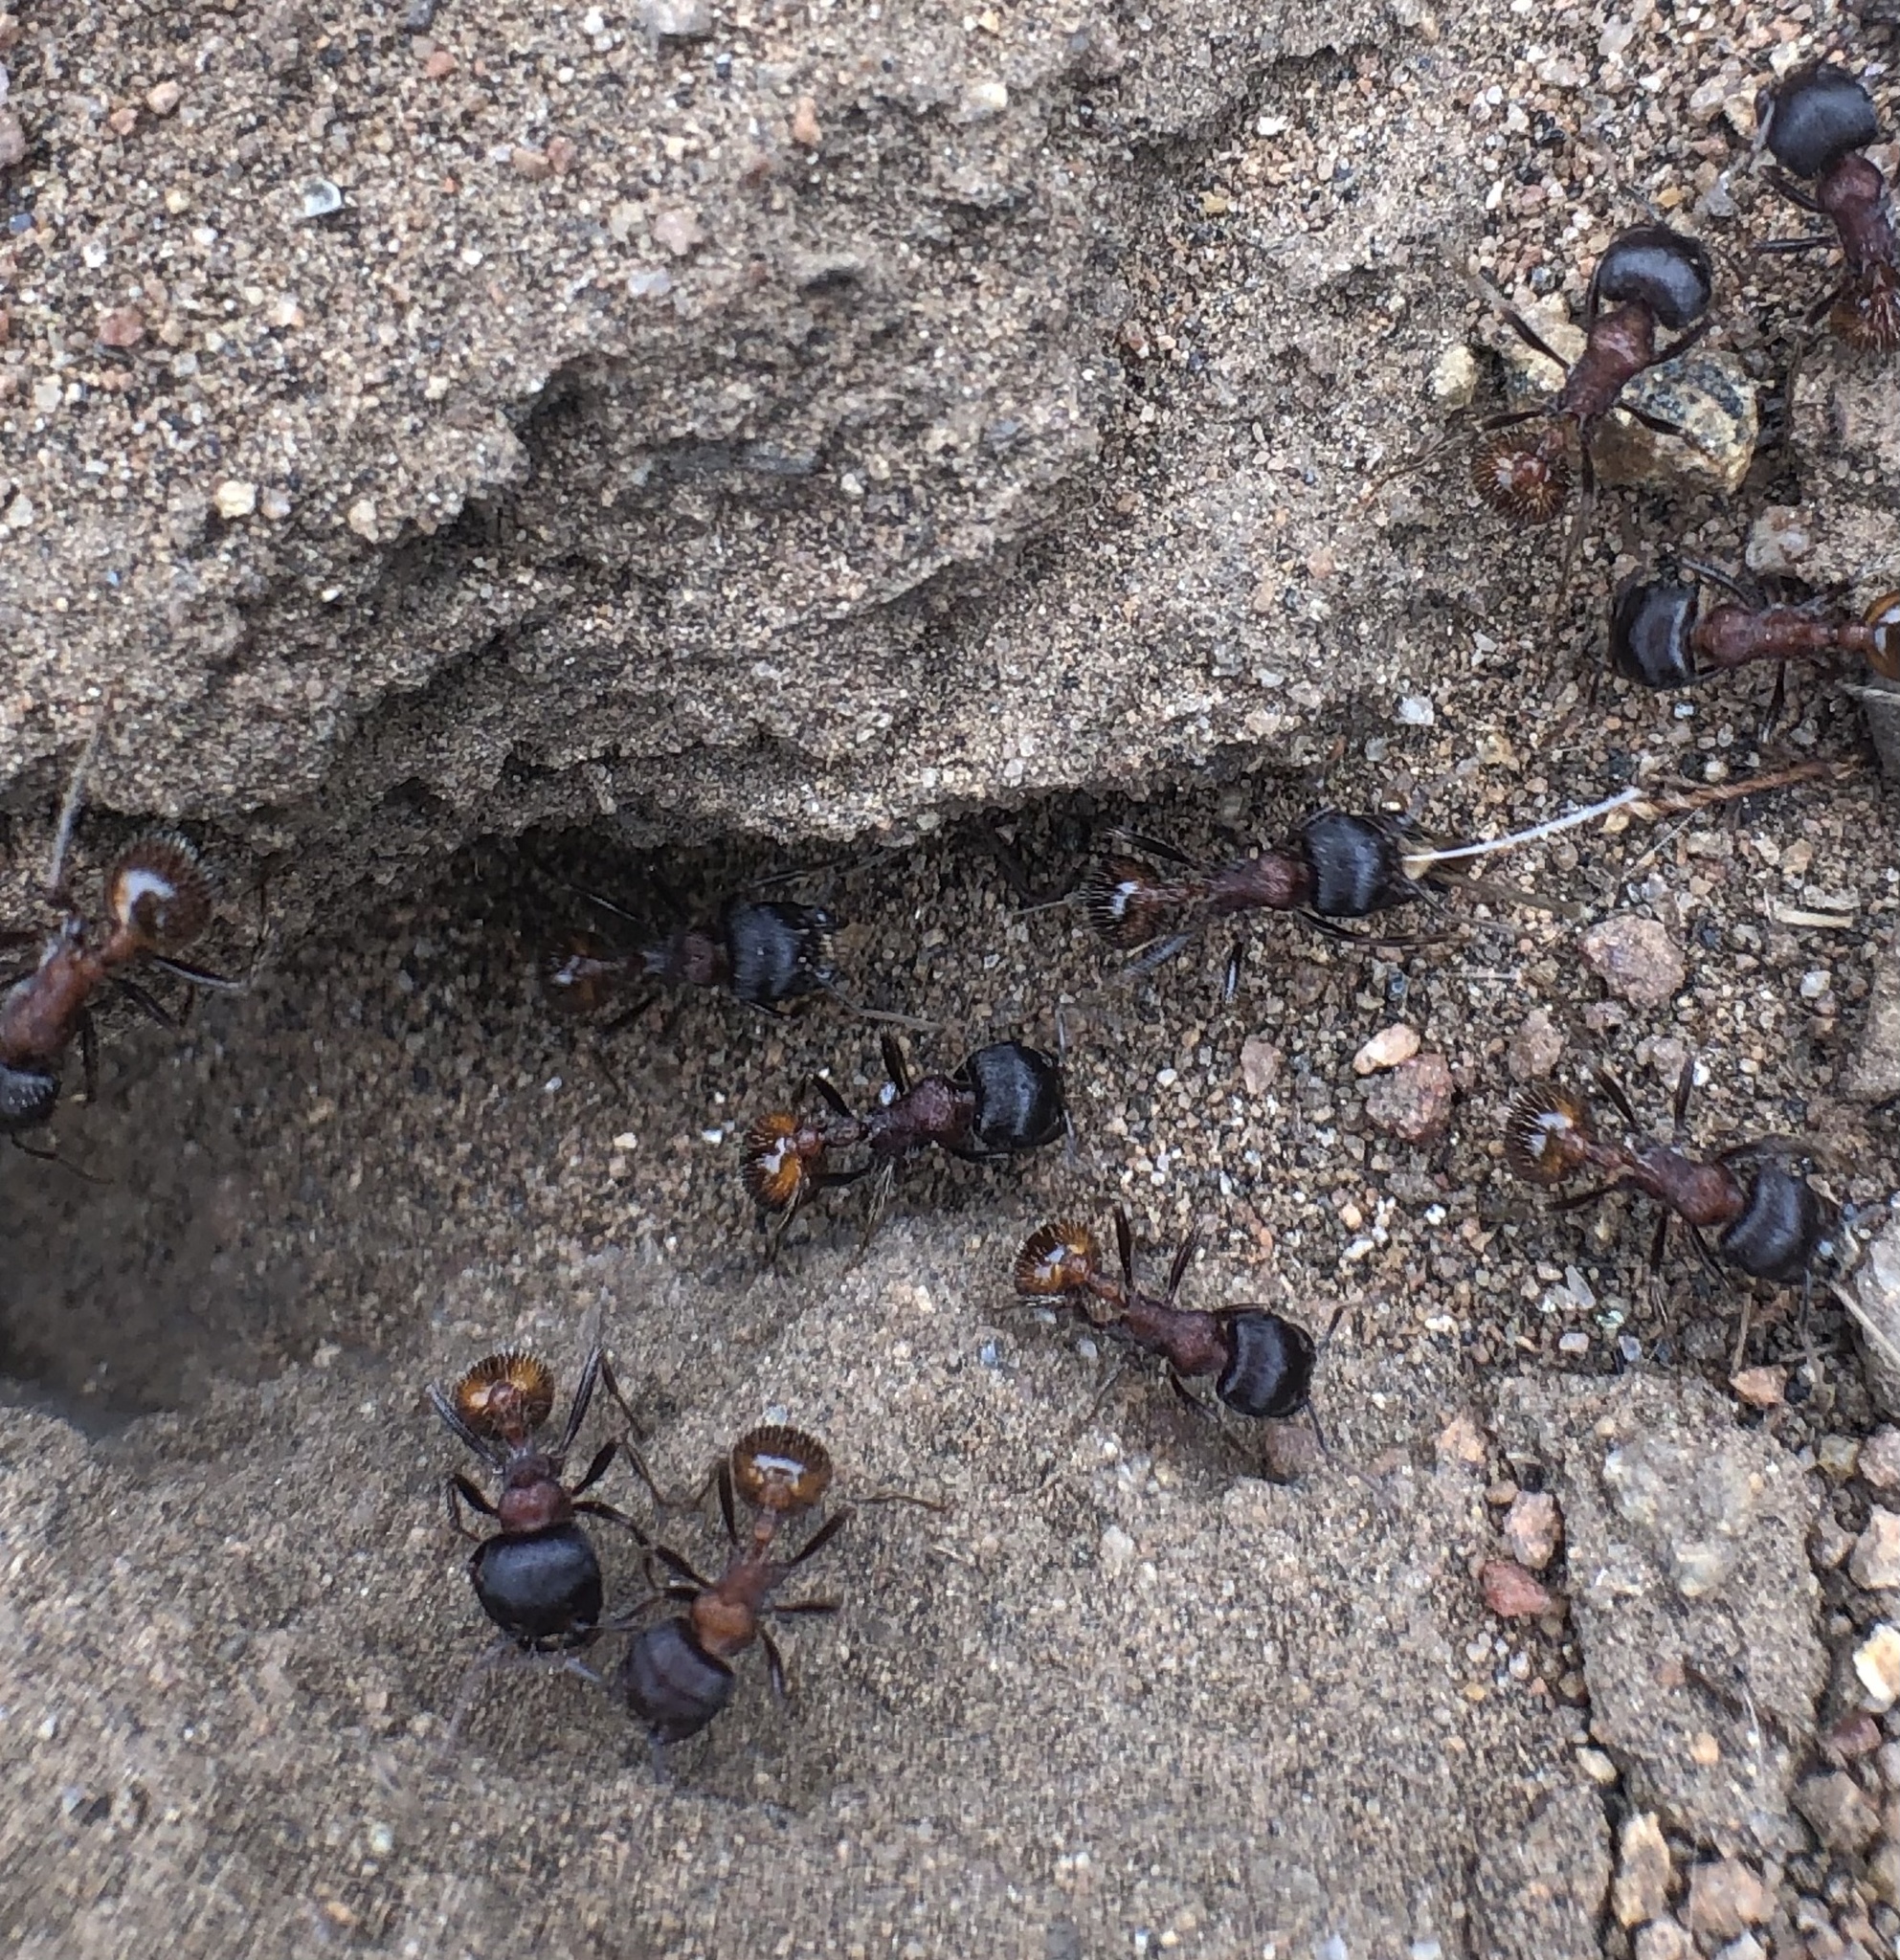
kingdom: Animalia
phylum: Arthropoda
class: Insecta
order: Hymenoptera
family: Formicidae
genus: Pogonomyrmex
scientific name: Pogonomyrmex rugosus
